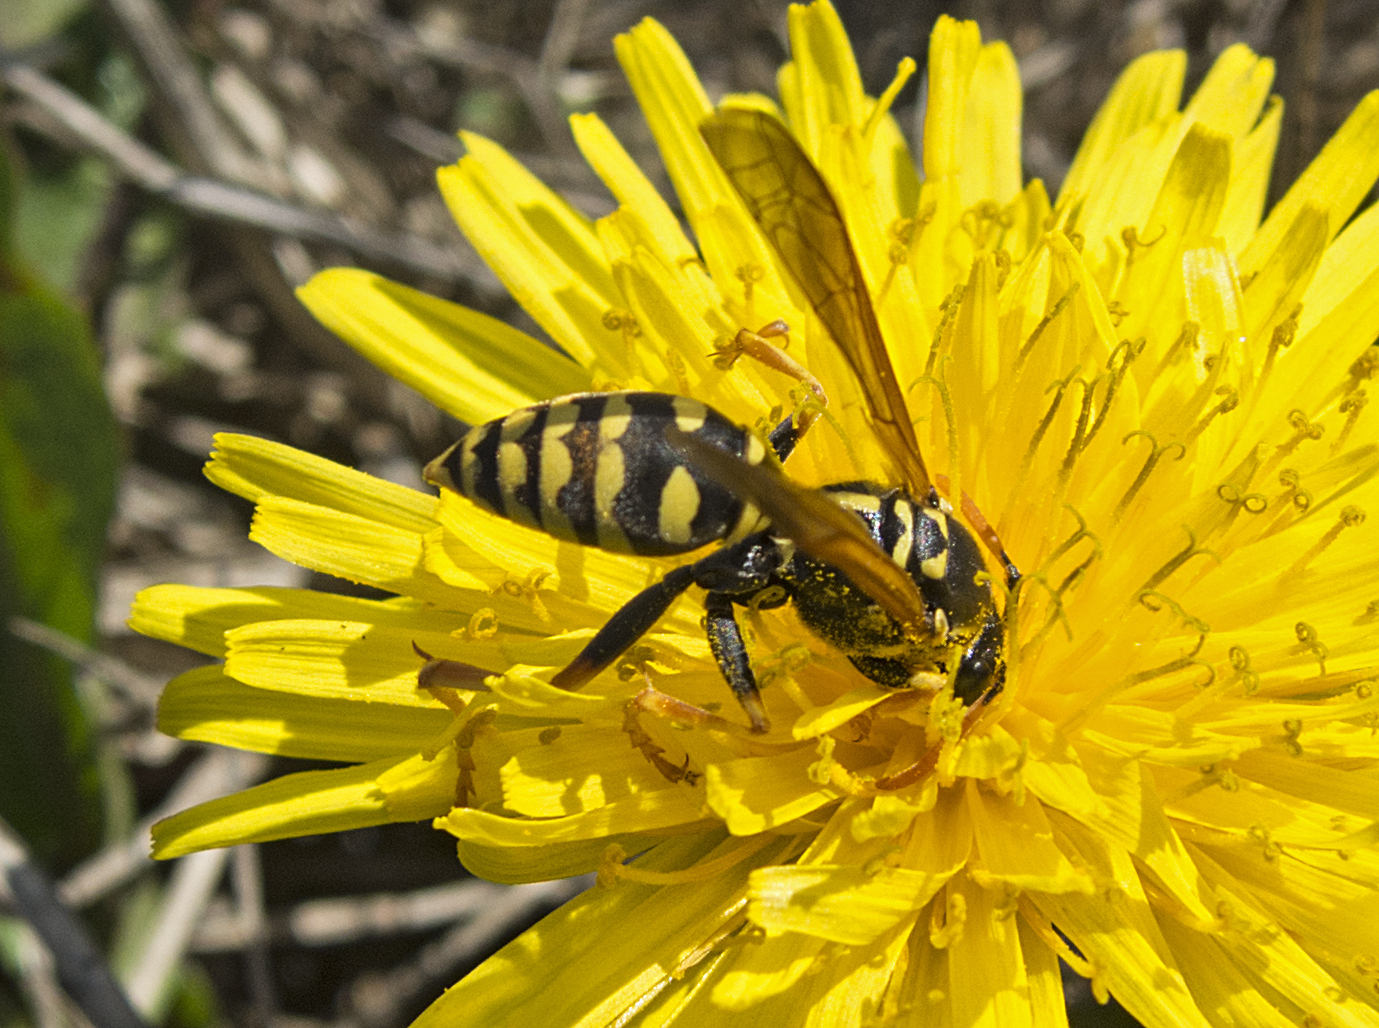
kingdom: Animalia
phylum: Arthropoda
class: Insecta
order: Hymenoptera
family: Eumenidae
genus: Polistes
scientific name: Polistes dominula
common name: Paper wasp
